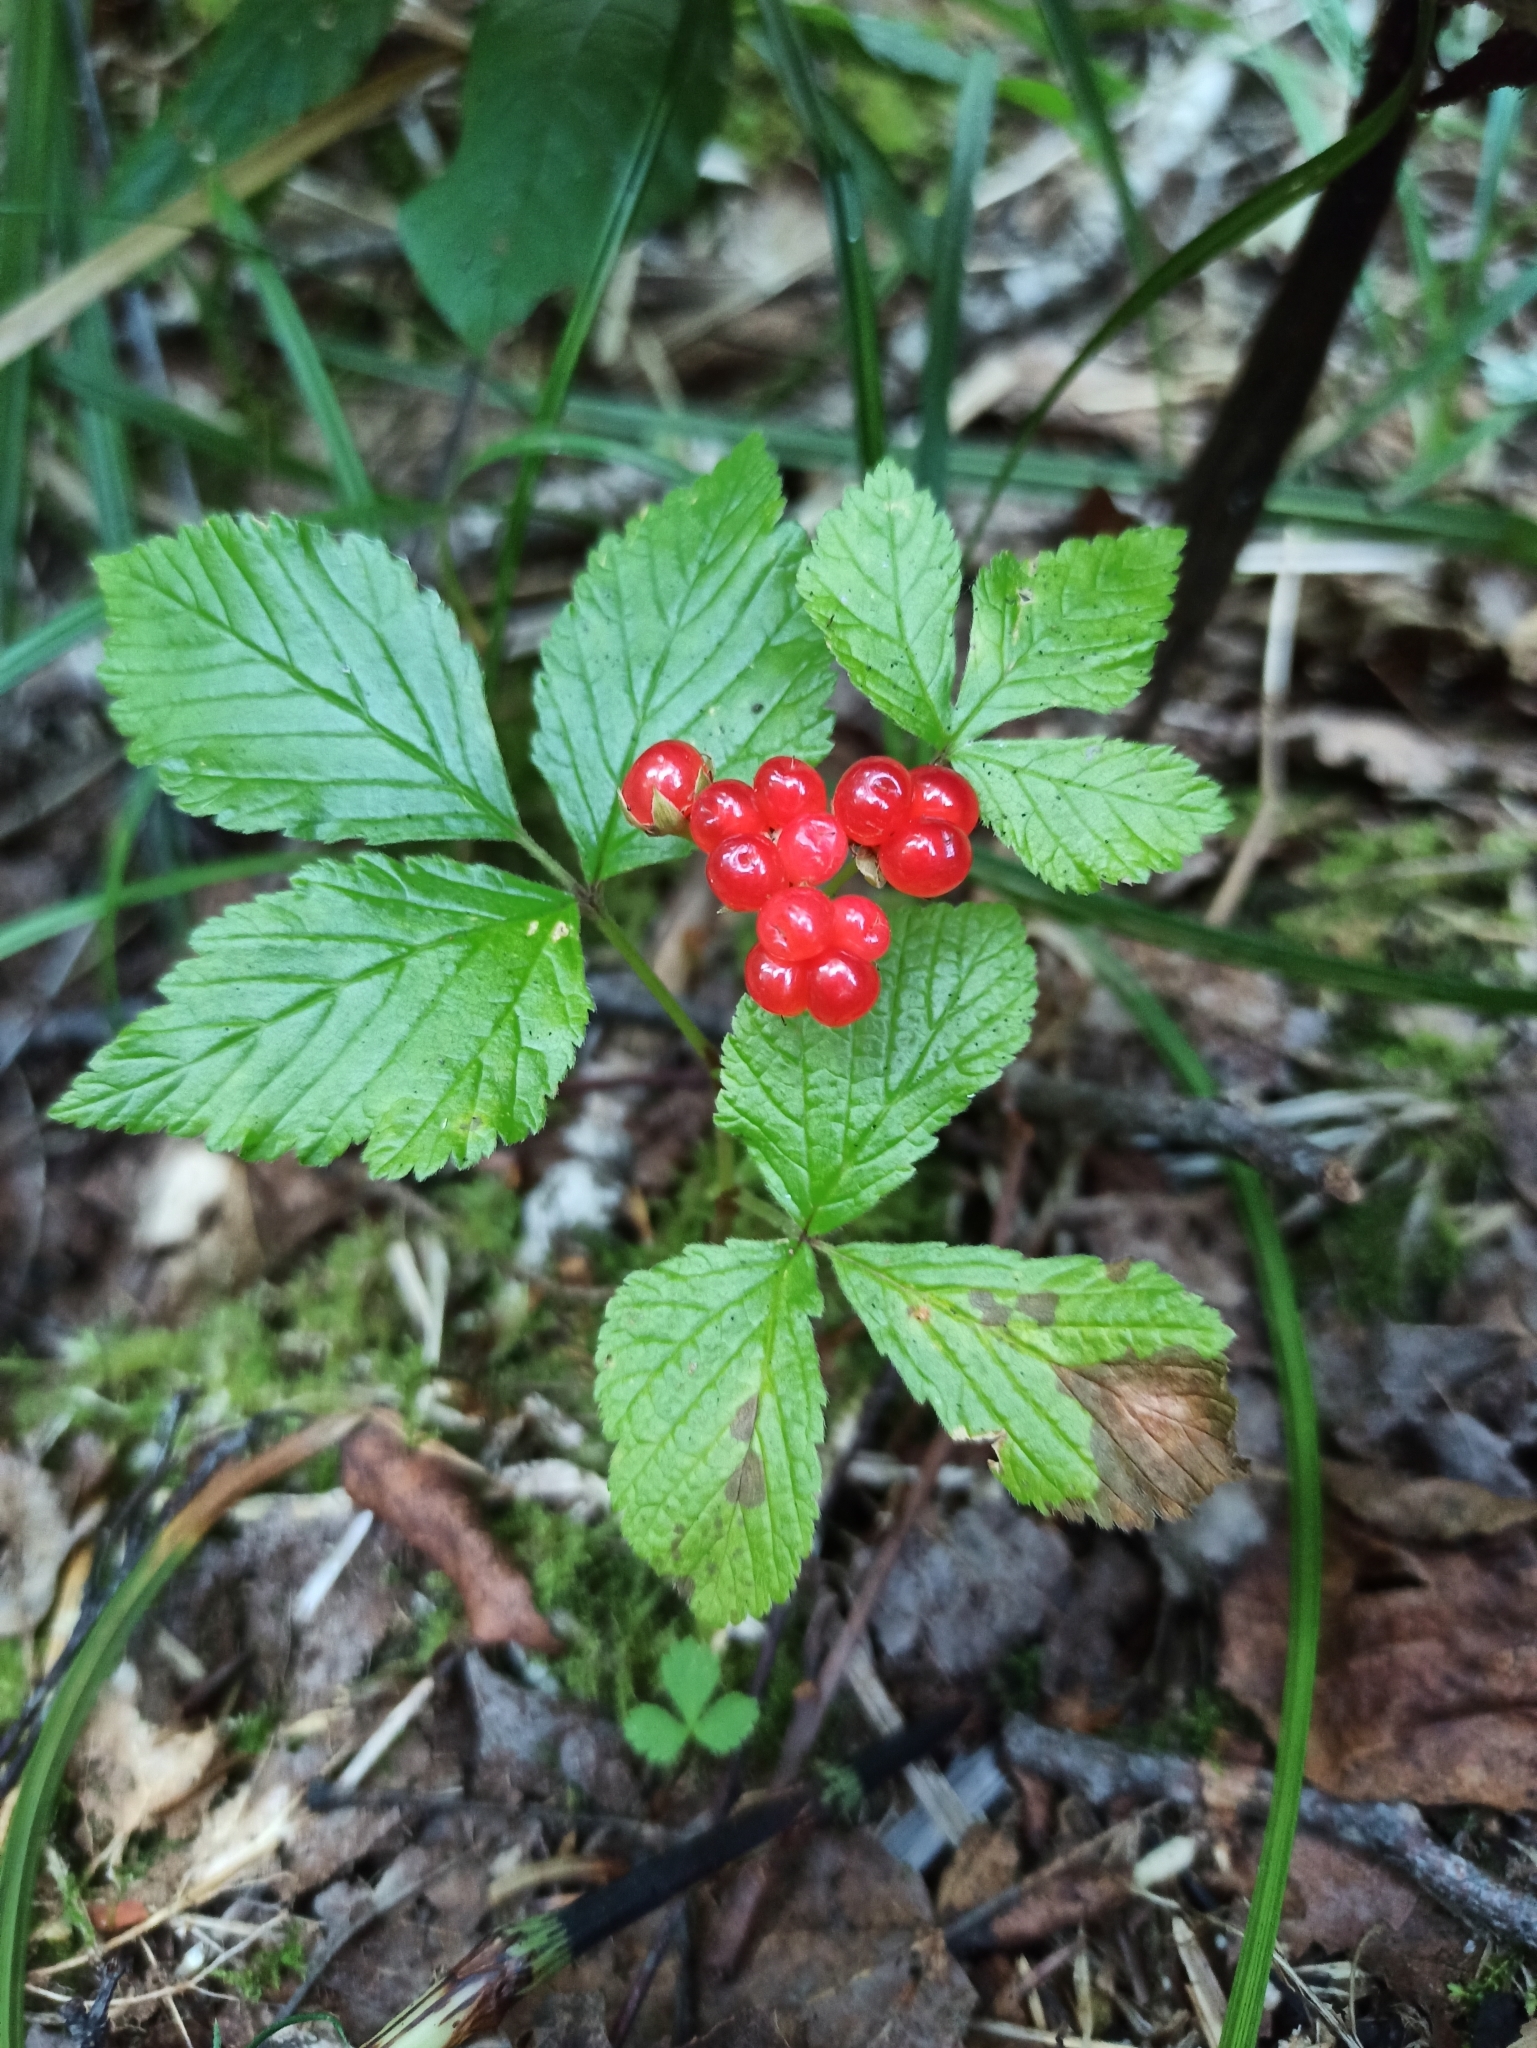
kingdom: Plantae
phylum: Tracheophyta
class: Magnoliopsida
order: Rosales
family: Rosaceae
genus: Rubus
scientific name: Rubus saxatilis
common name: Stone bramble
